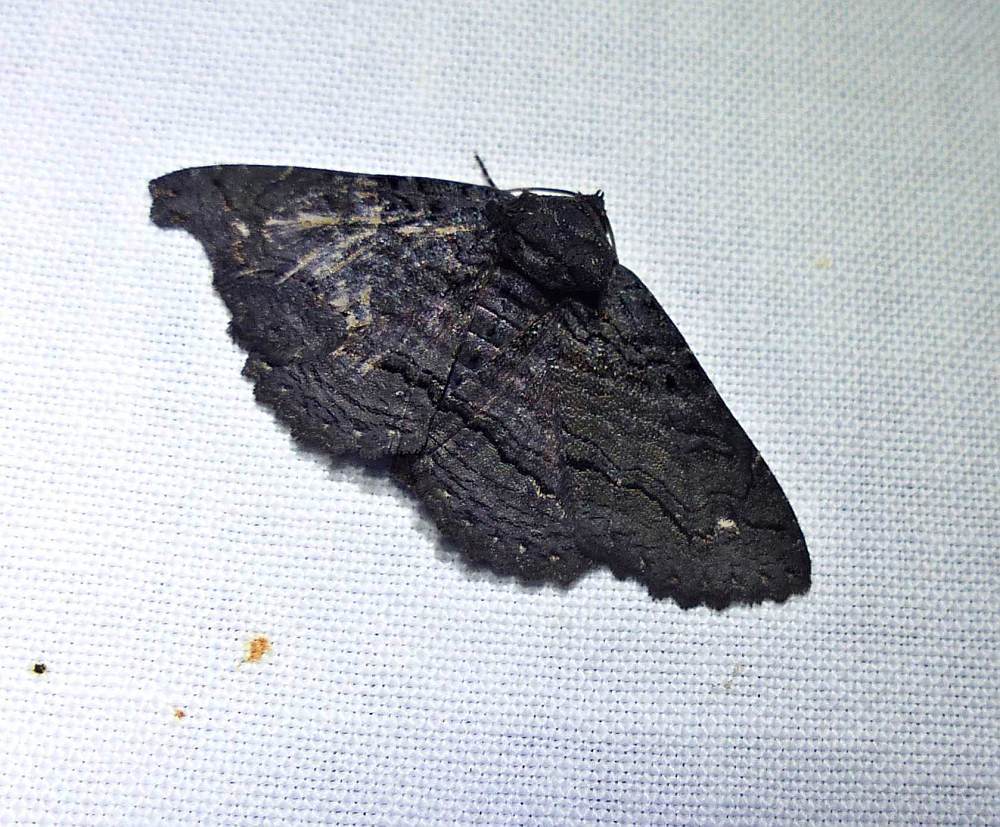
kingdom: Animalia
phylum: Arthropoda
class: Insecta
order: Lepidoptera
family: Erebidae
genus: Zale
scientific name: Zale undularis
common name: Black zale moth
